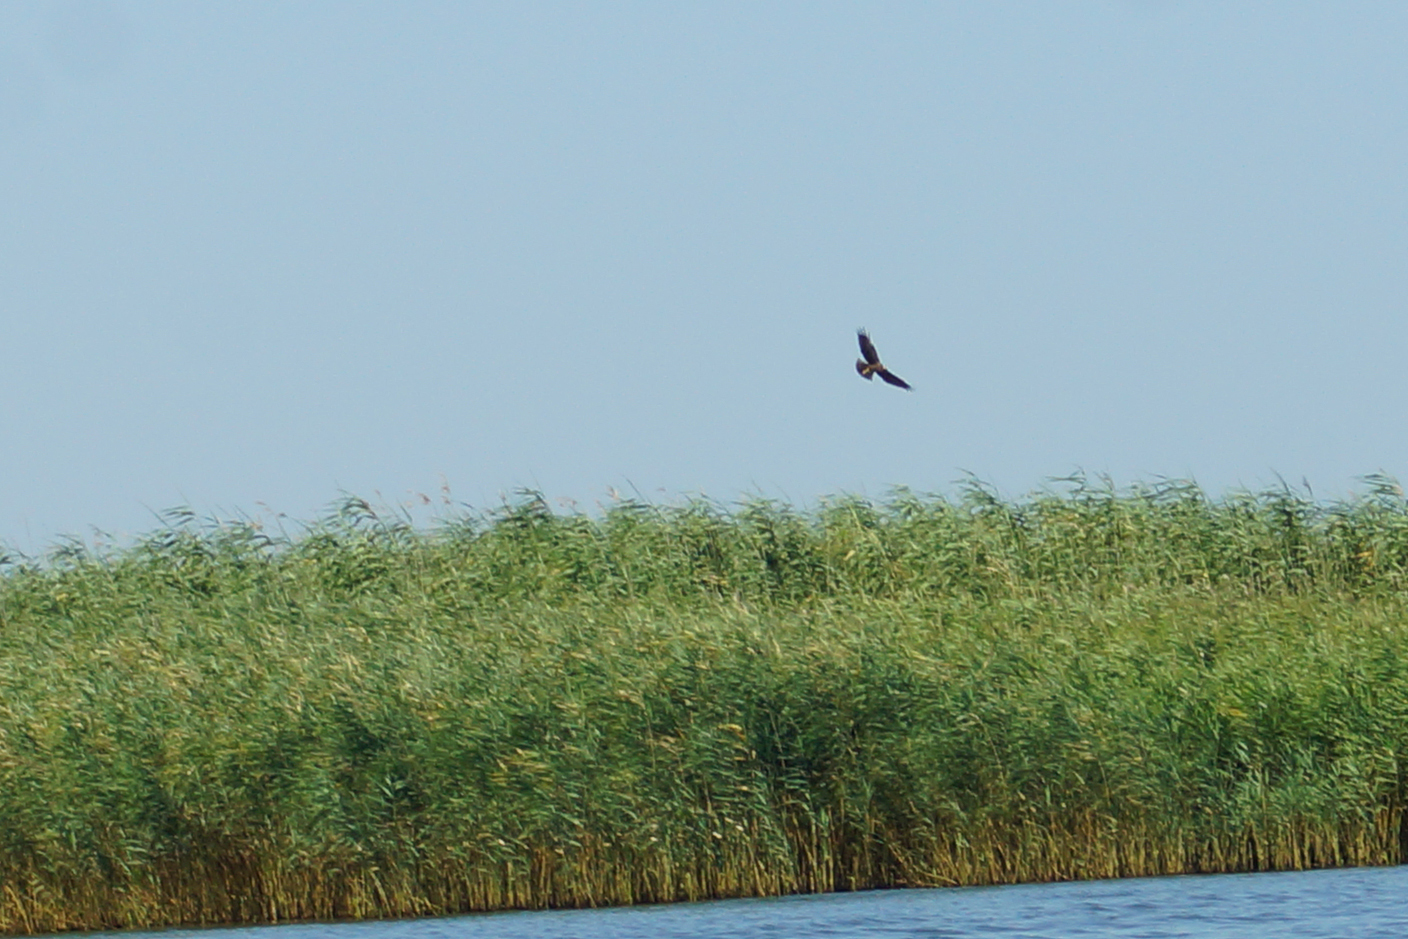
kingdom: Animalia
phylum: Chordata
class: Aves
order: Accipitriformes
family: Accipitridae
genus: Circus
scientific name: Circus aeruginosus
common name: Western marsh harrier
